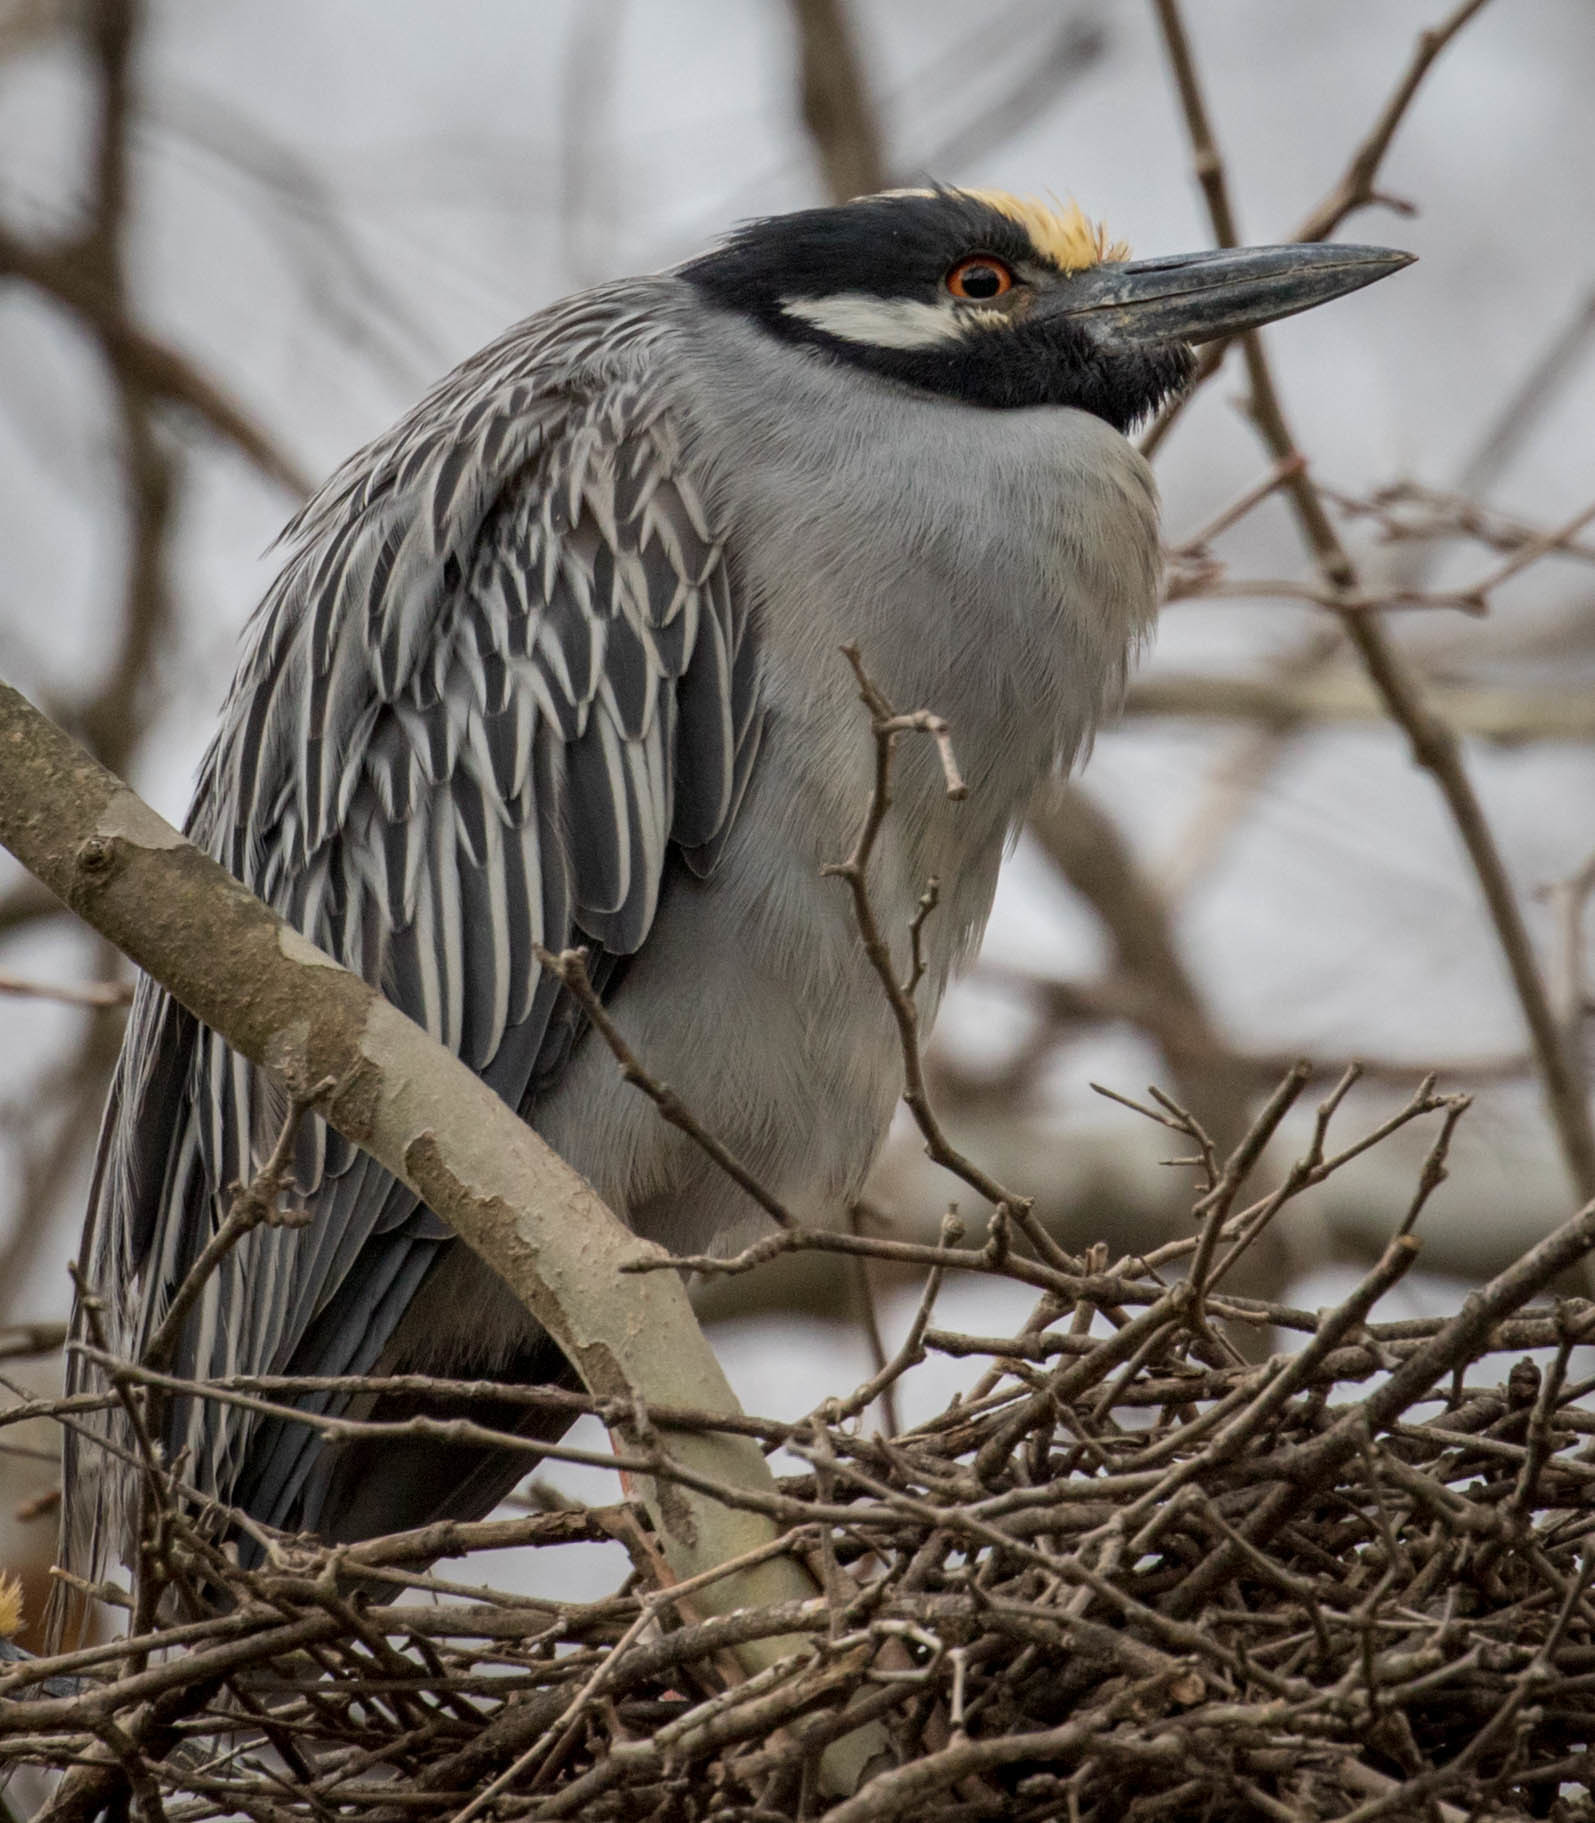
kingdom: Animalia
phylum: Chordata
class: Aves
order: Pelecaniformes
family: Ardeidae
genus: Nyctanassa
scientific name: Nyctanassa violacea
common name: Yellow-crowned night heron
